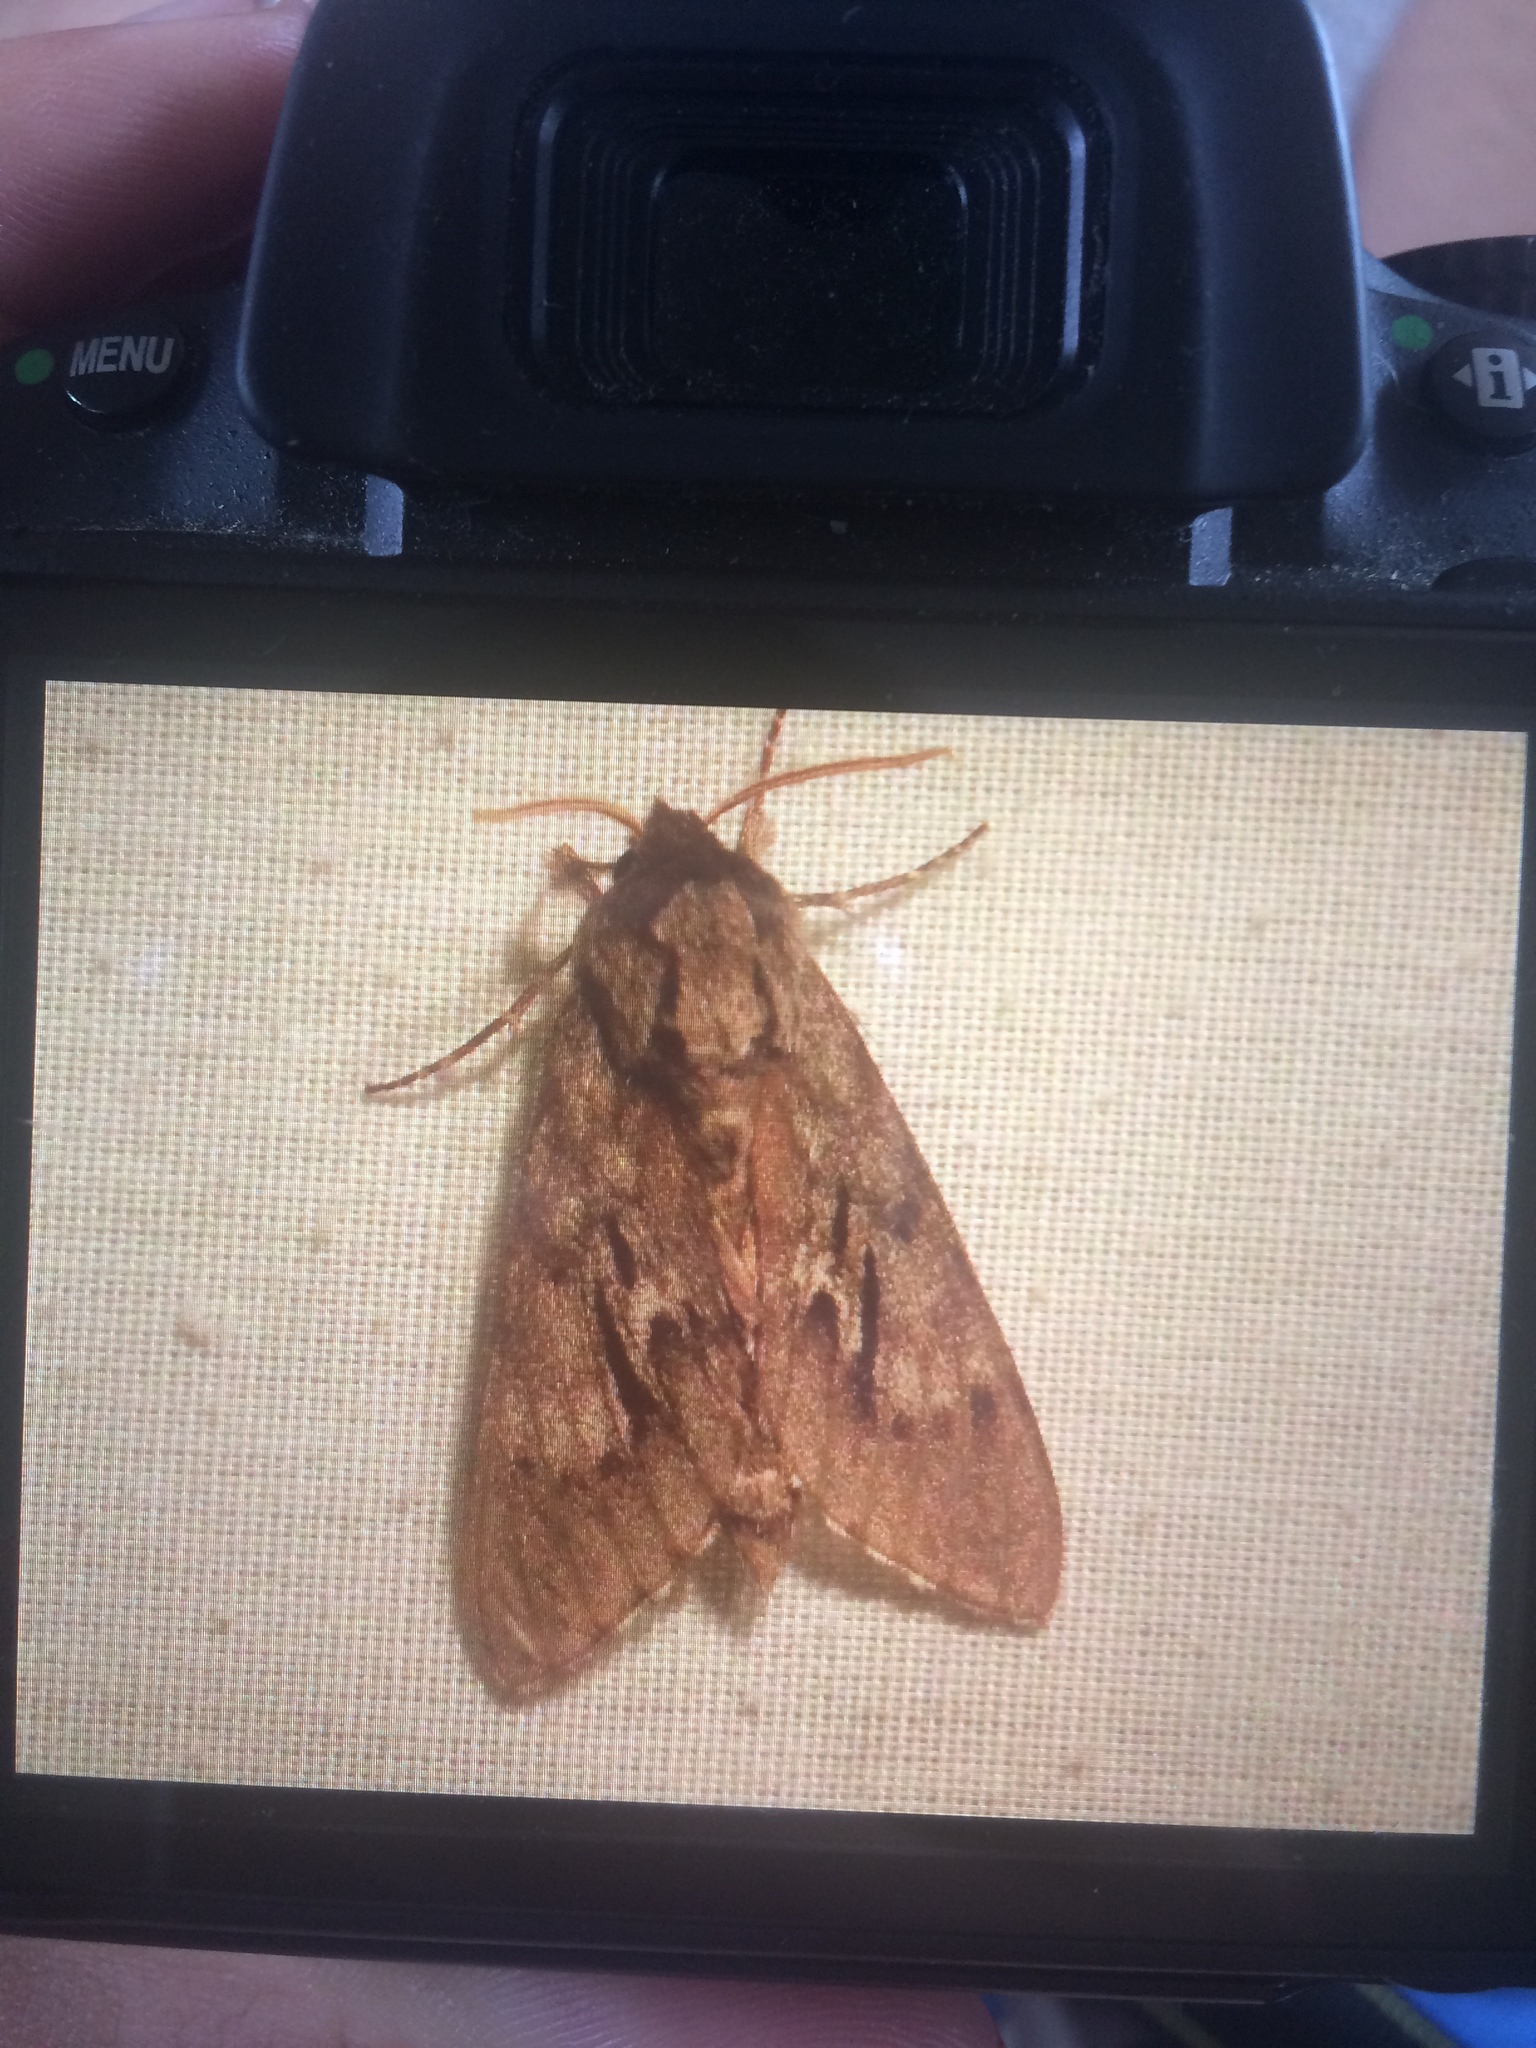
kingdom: Animalia
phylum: Arthropoda
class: Insecta
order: Lepidoptera
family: Sphingidae
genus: Lapara
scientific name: Lapara bombycoides
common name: Northern pine sphinx
